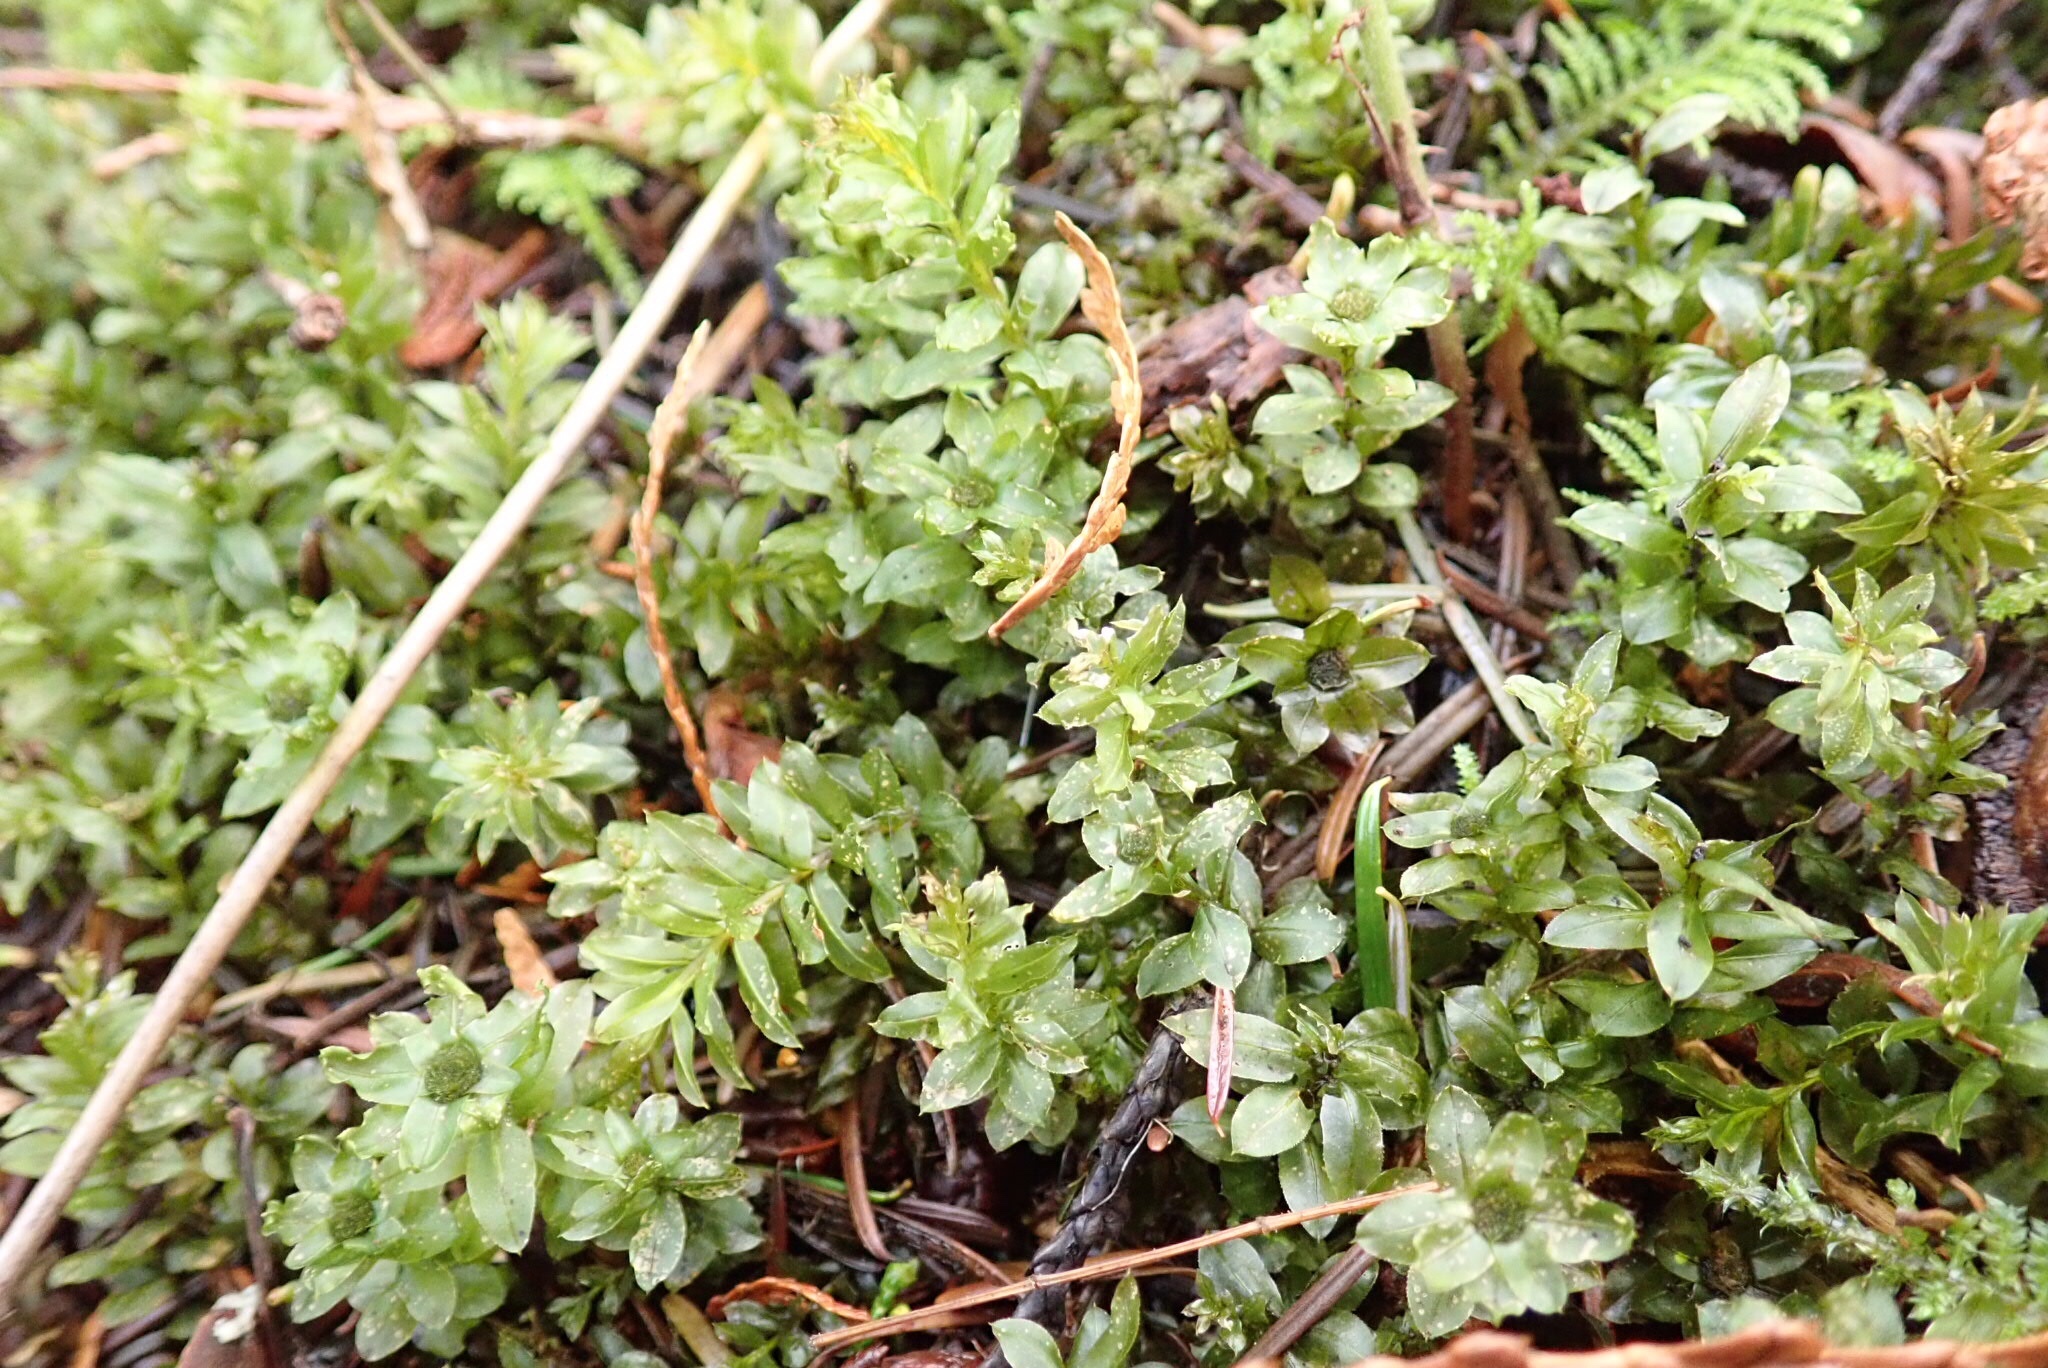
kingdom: Plantae
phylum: Bryophyta
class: Bryopsida
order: Bryales
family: Mniaceae
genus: Plagiomnium
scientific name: Plagiomnium insigne
